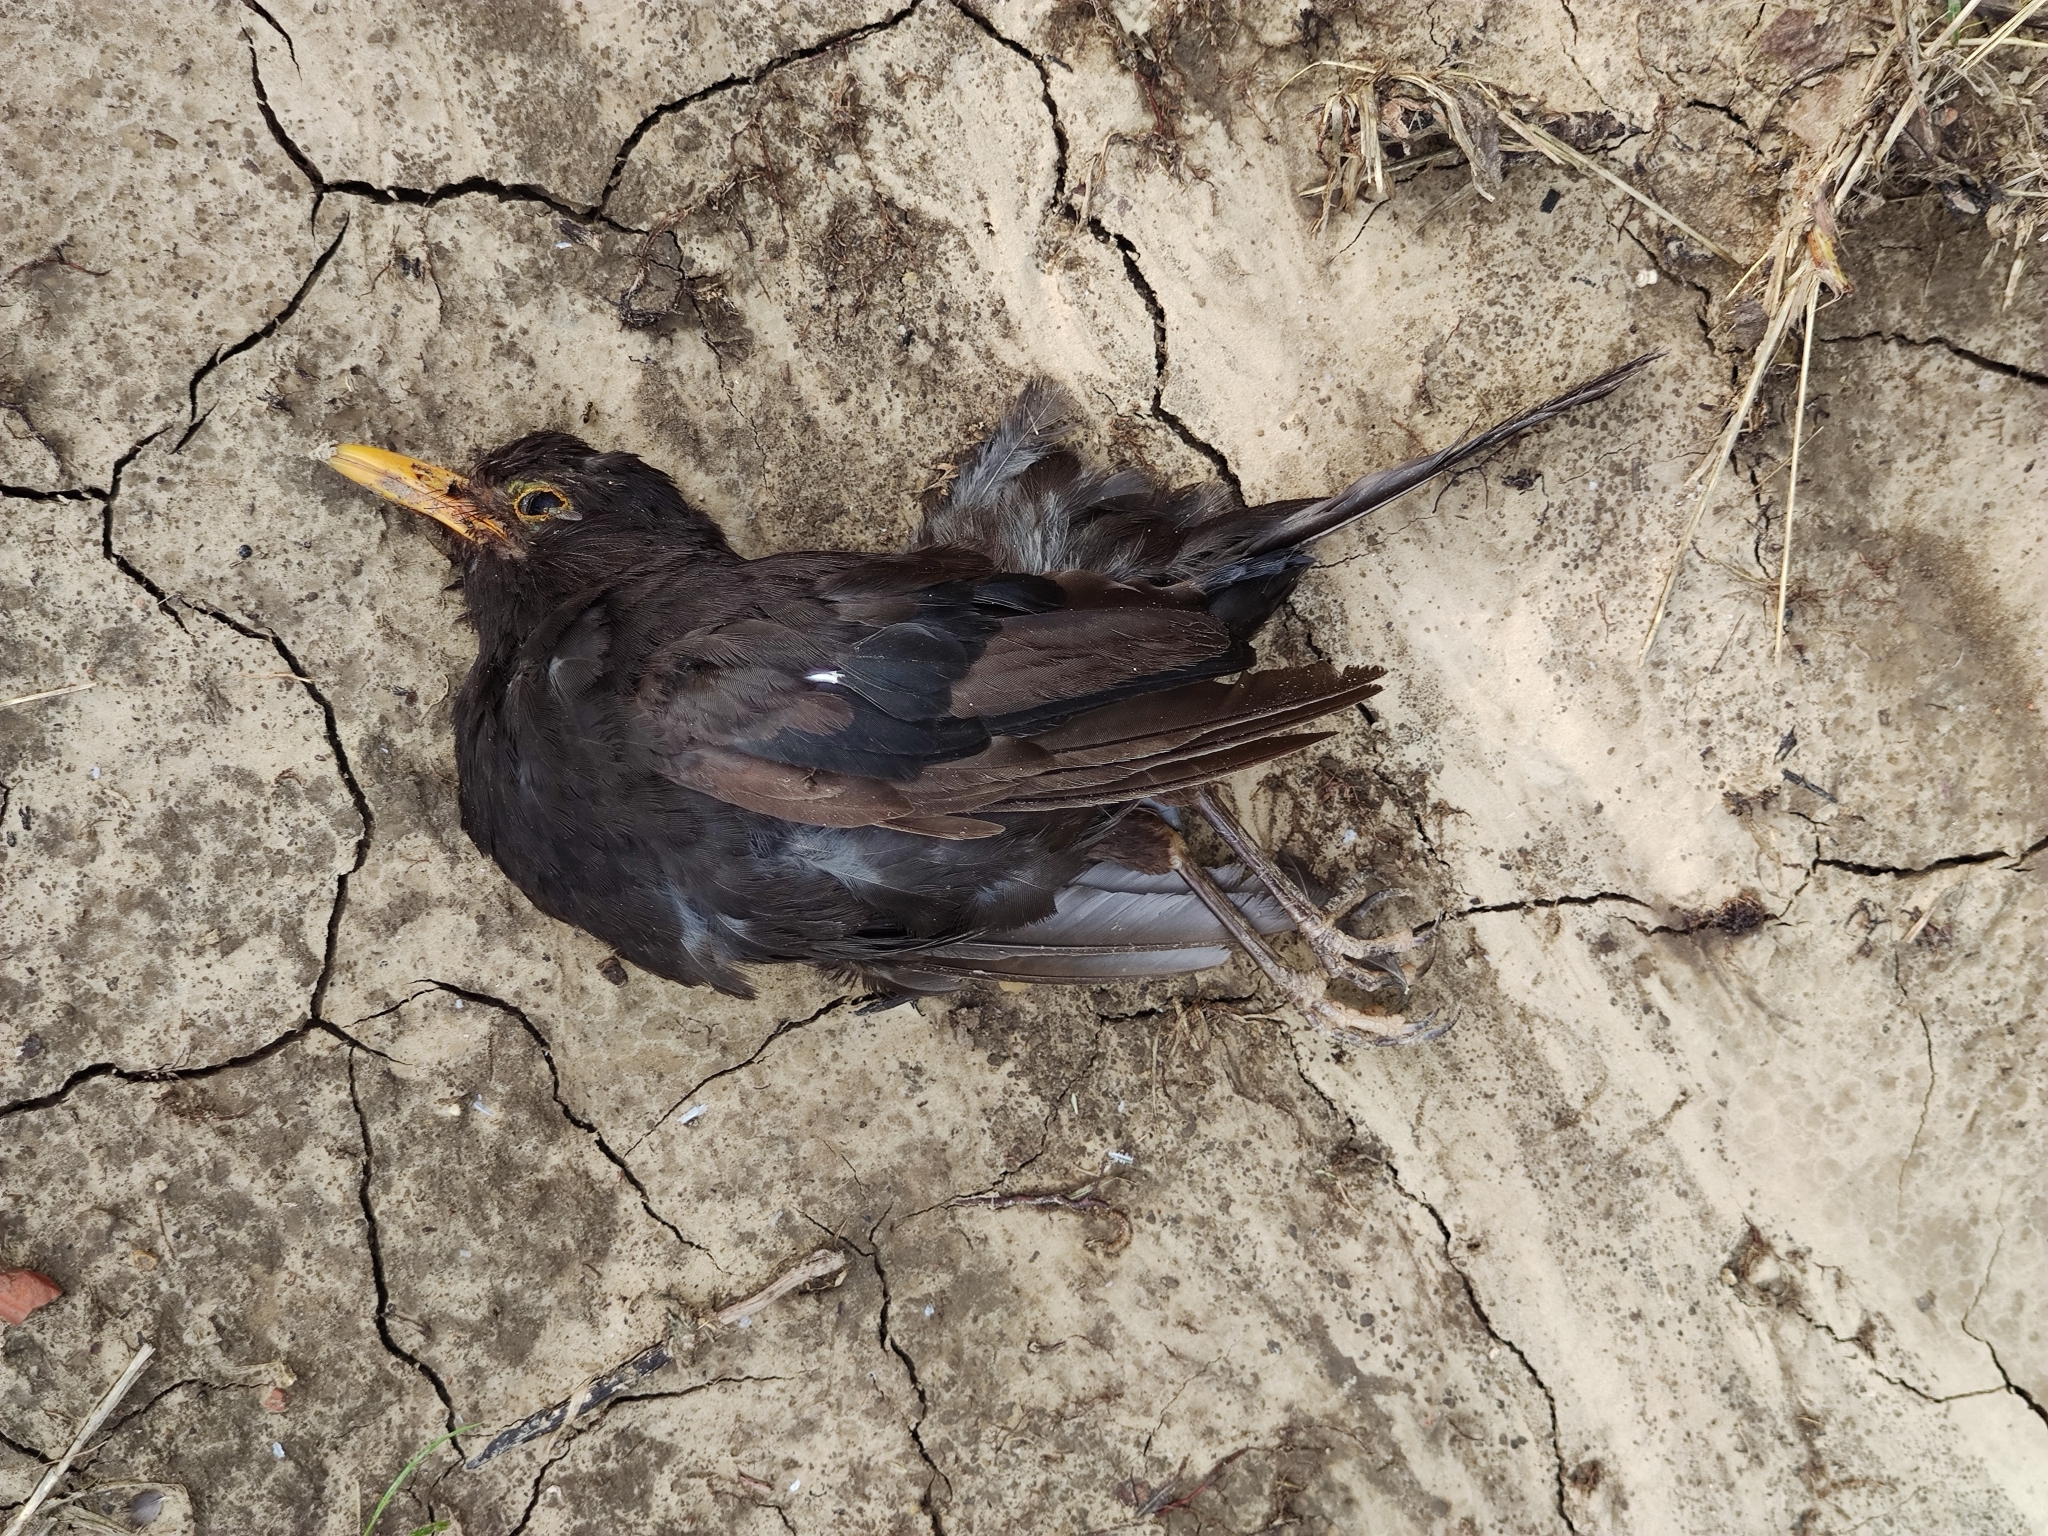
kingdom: Animalia
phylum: Chordata
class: Aves
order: Passeriformes
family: Turdidae
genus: Turdus
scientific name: Turdus merula
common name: Common blackbird
